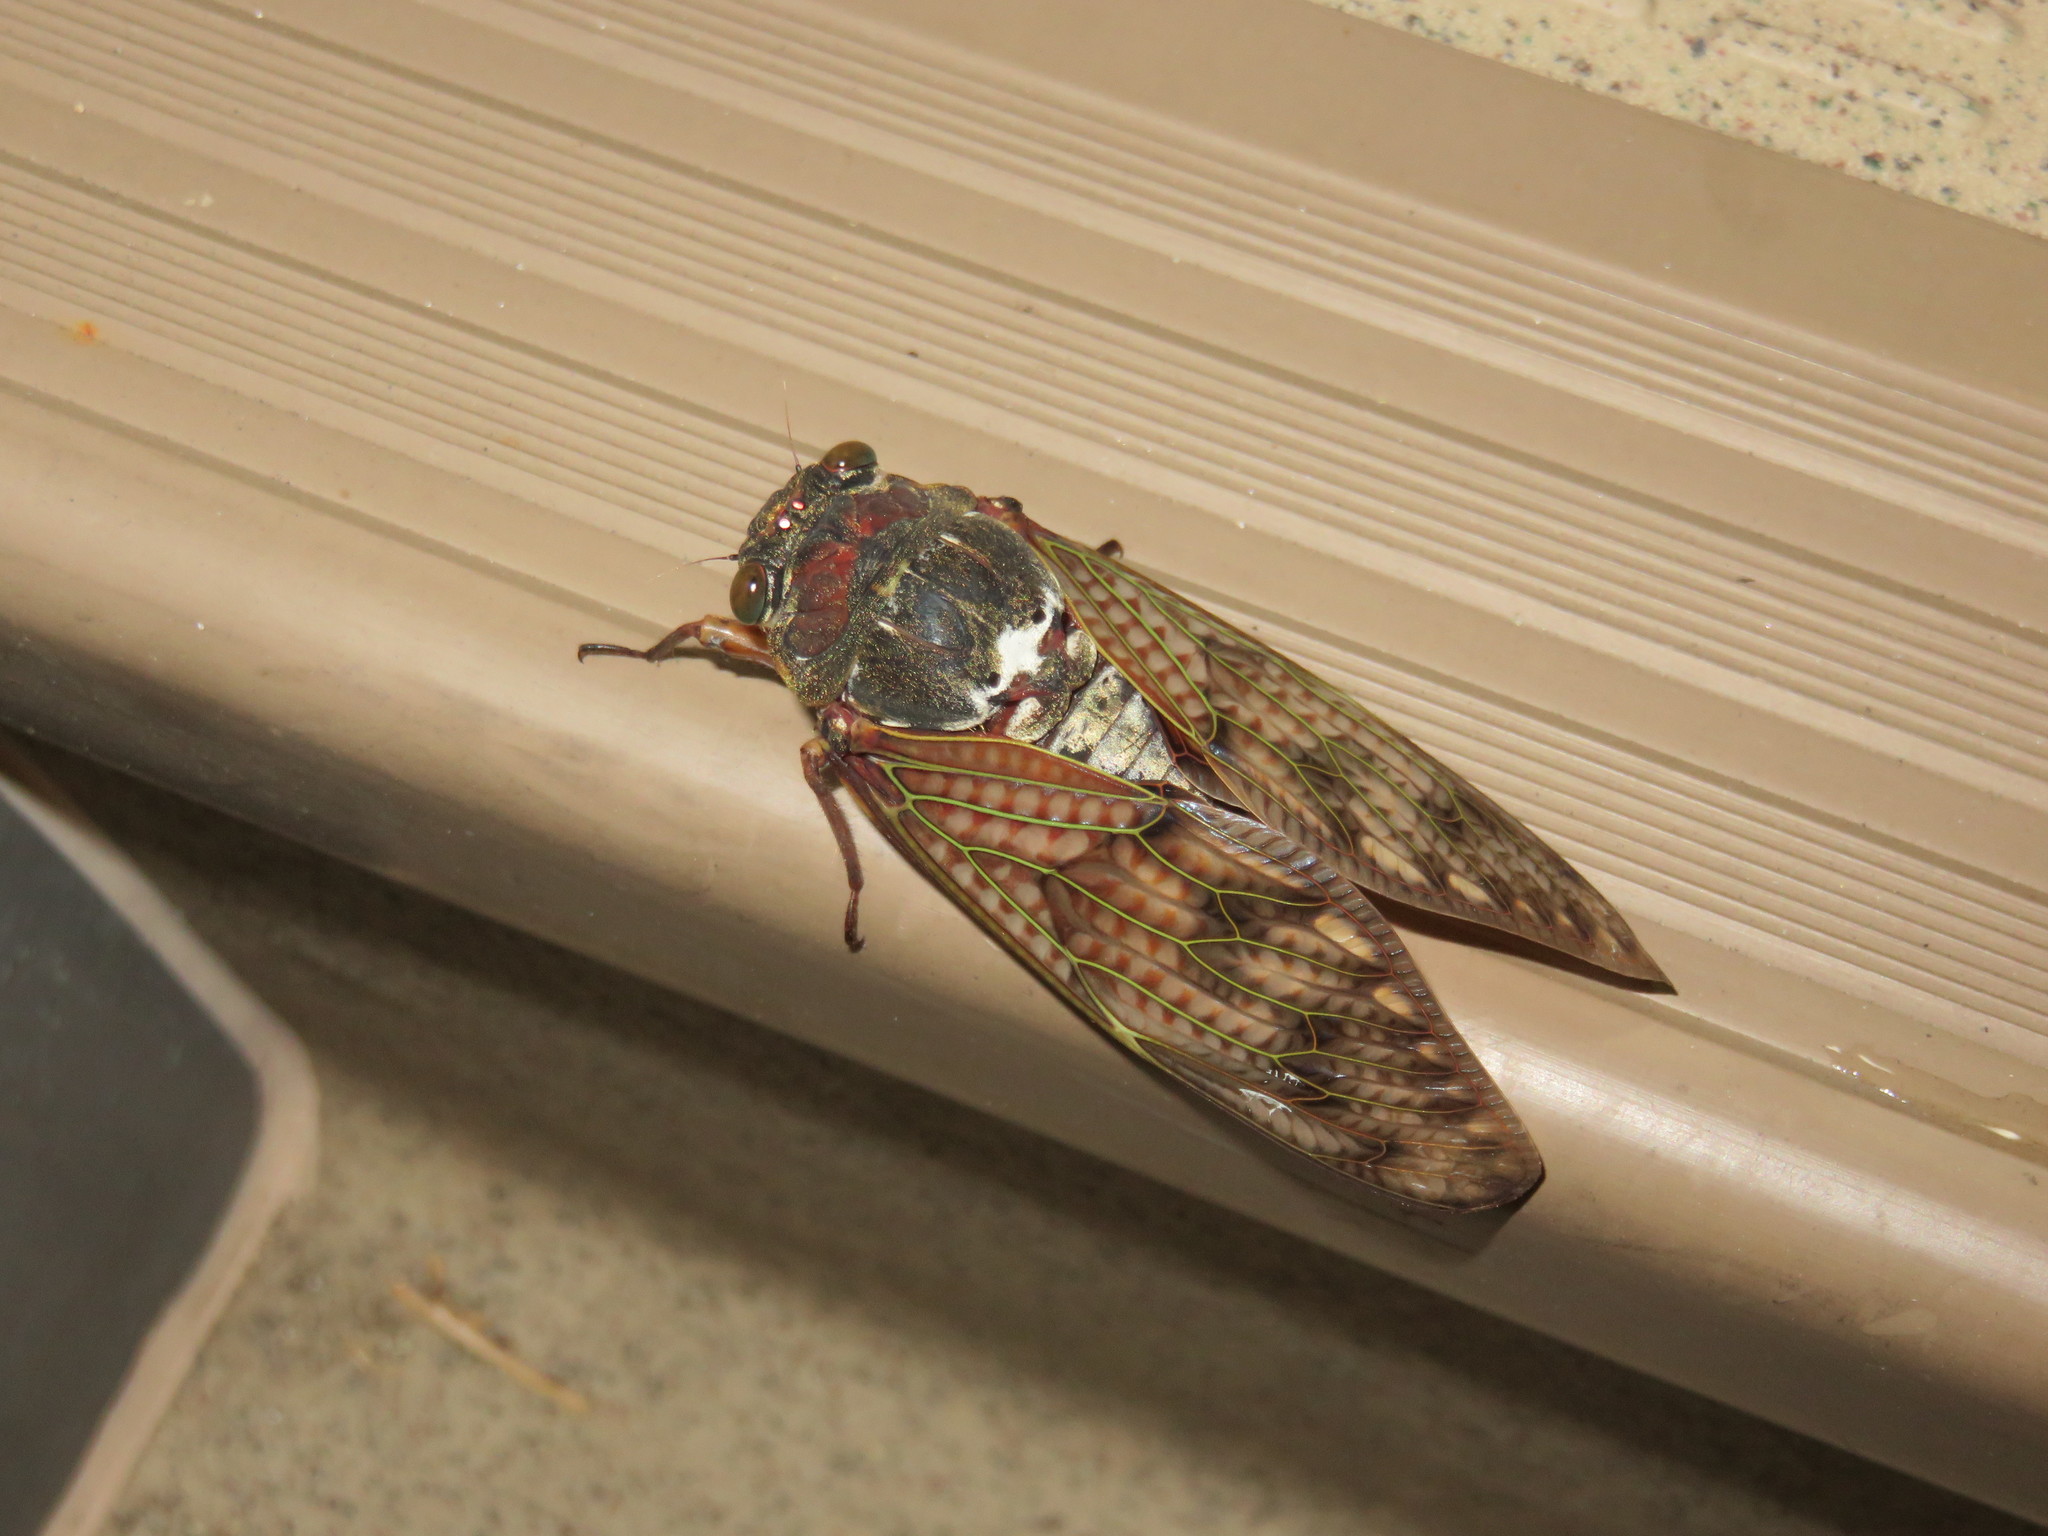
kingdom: Animalia
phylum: Arthropoda
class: Insecta
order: Hemiptera
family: Cicadidae
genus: Graptopsaltria
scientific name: Graptopsaltria nigrofuscata
